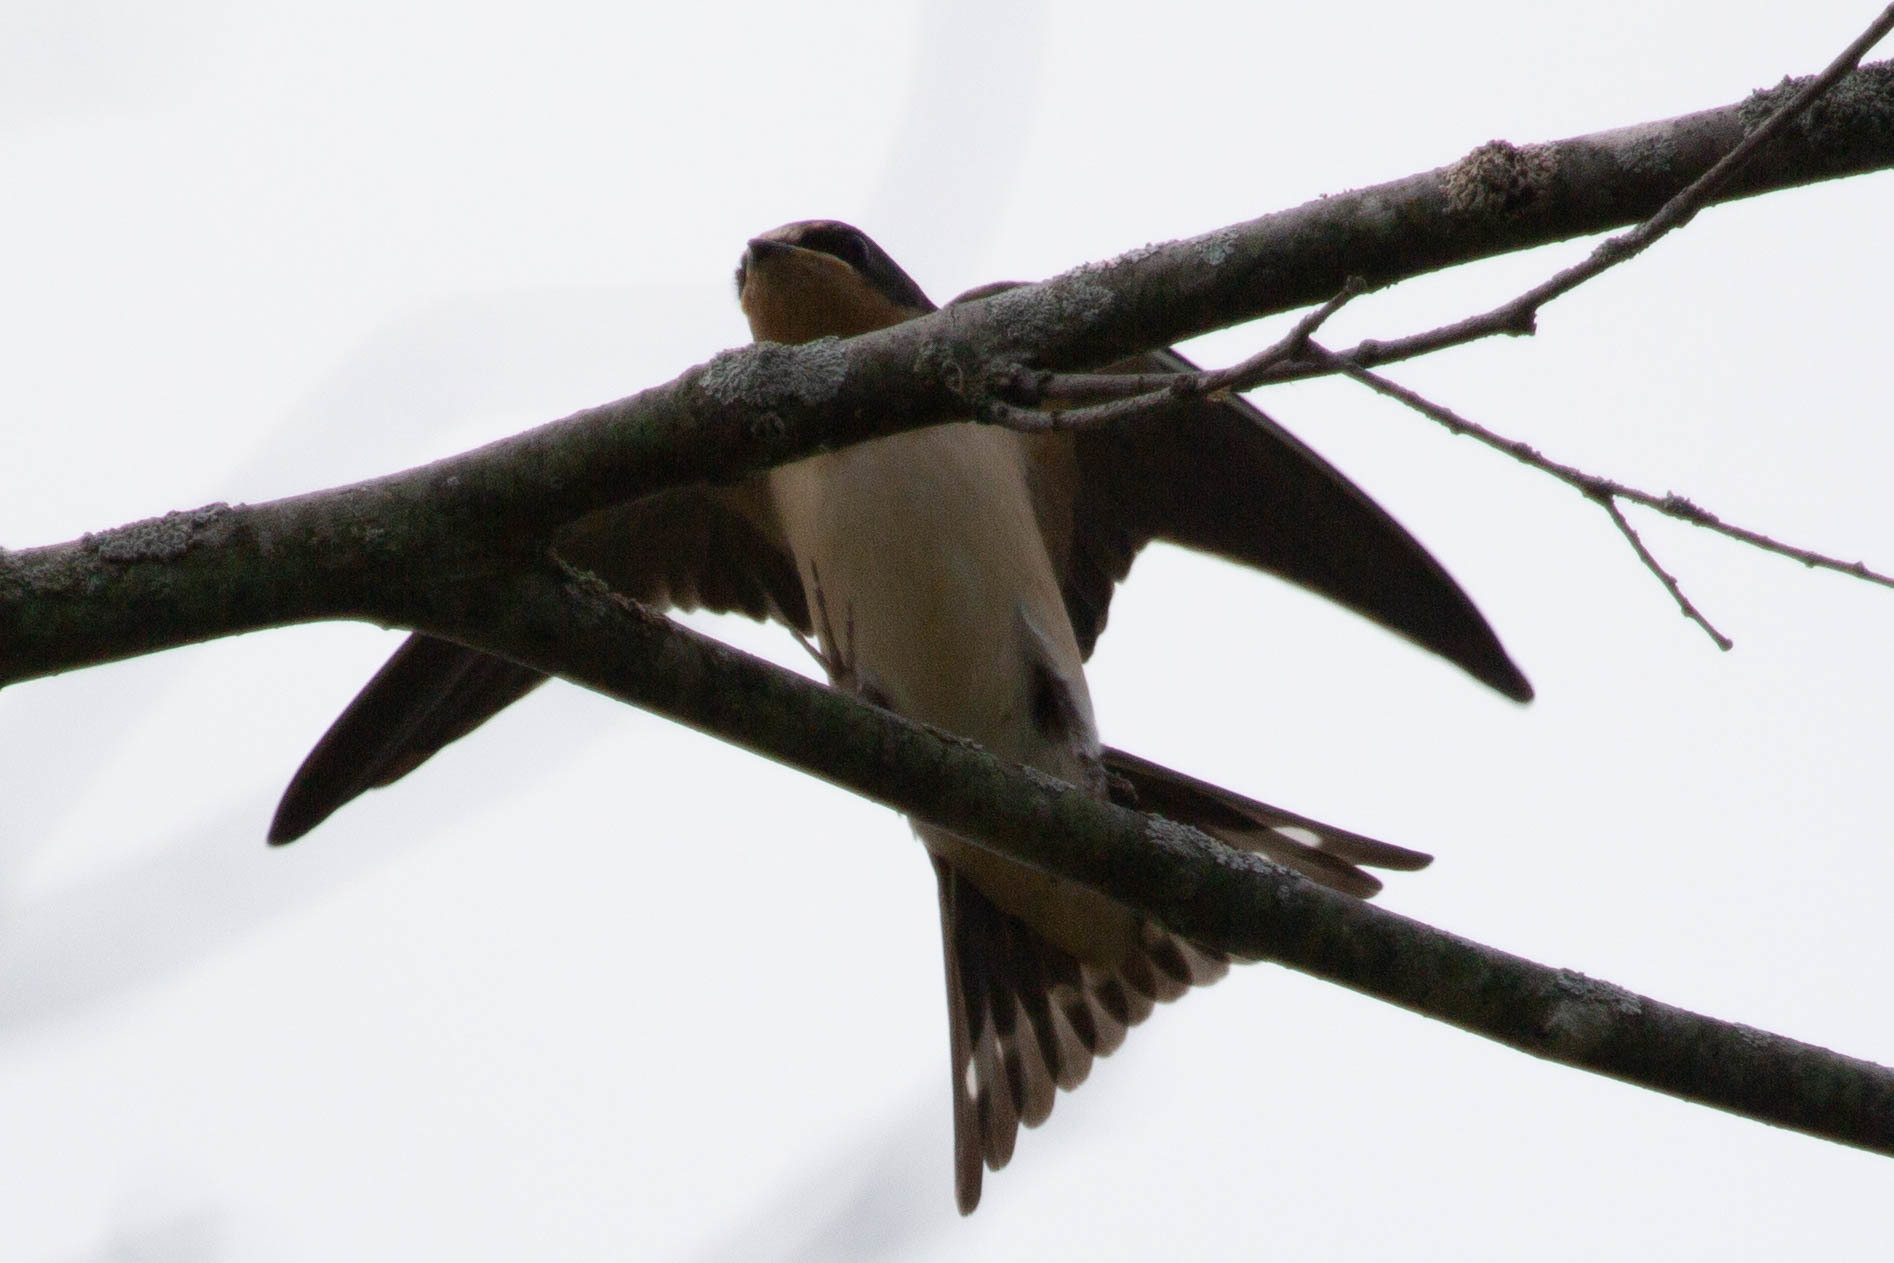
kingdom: Animalia
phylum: Chordata
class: Aves
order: Passeriformes
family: Hirundinidae
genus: Hirundo
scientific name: Hirundo rustica
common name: Barn swallow
